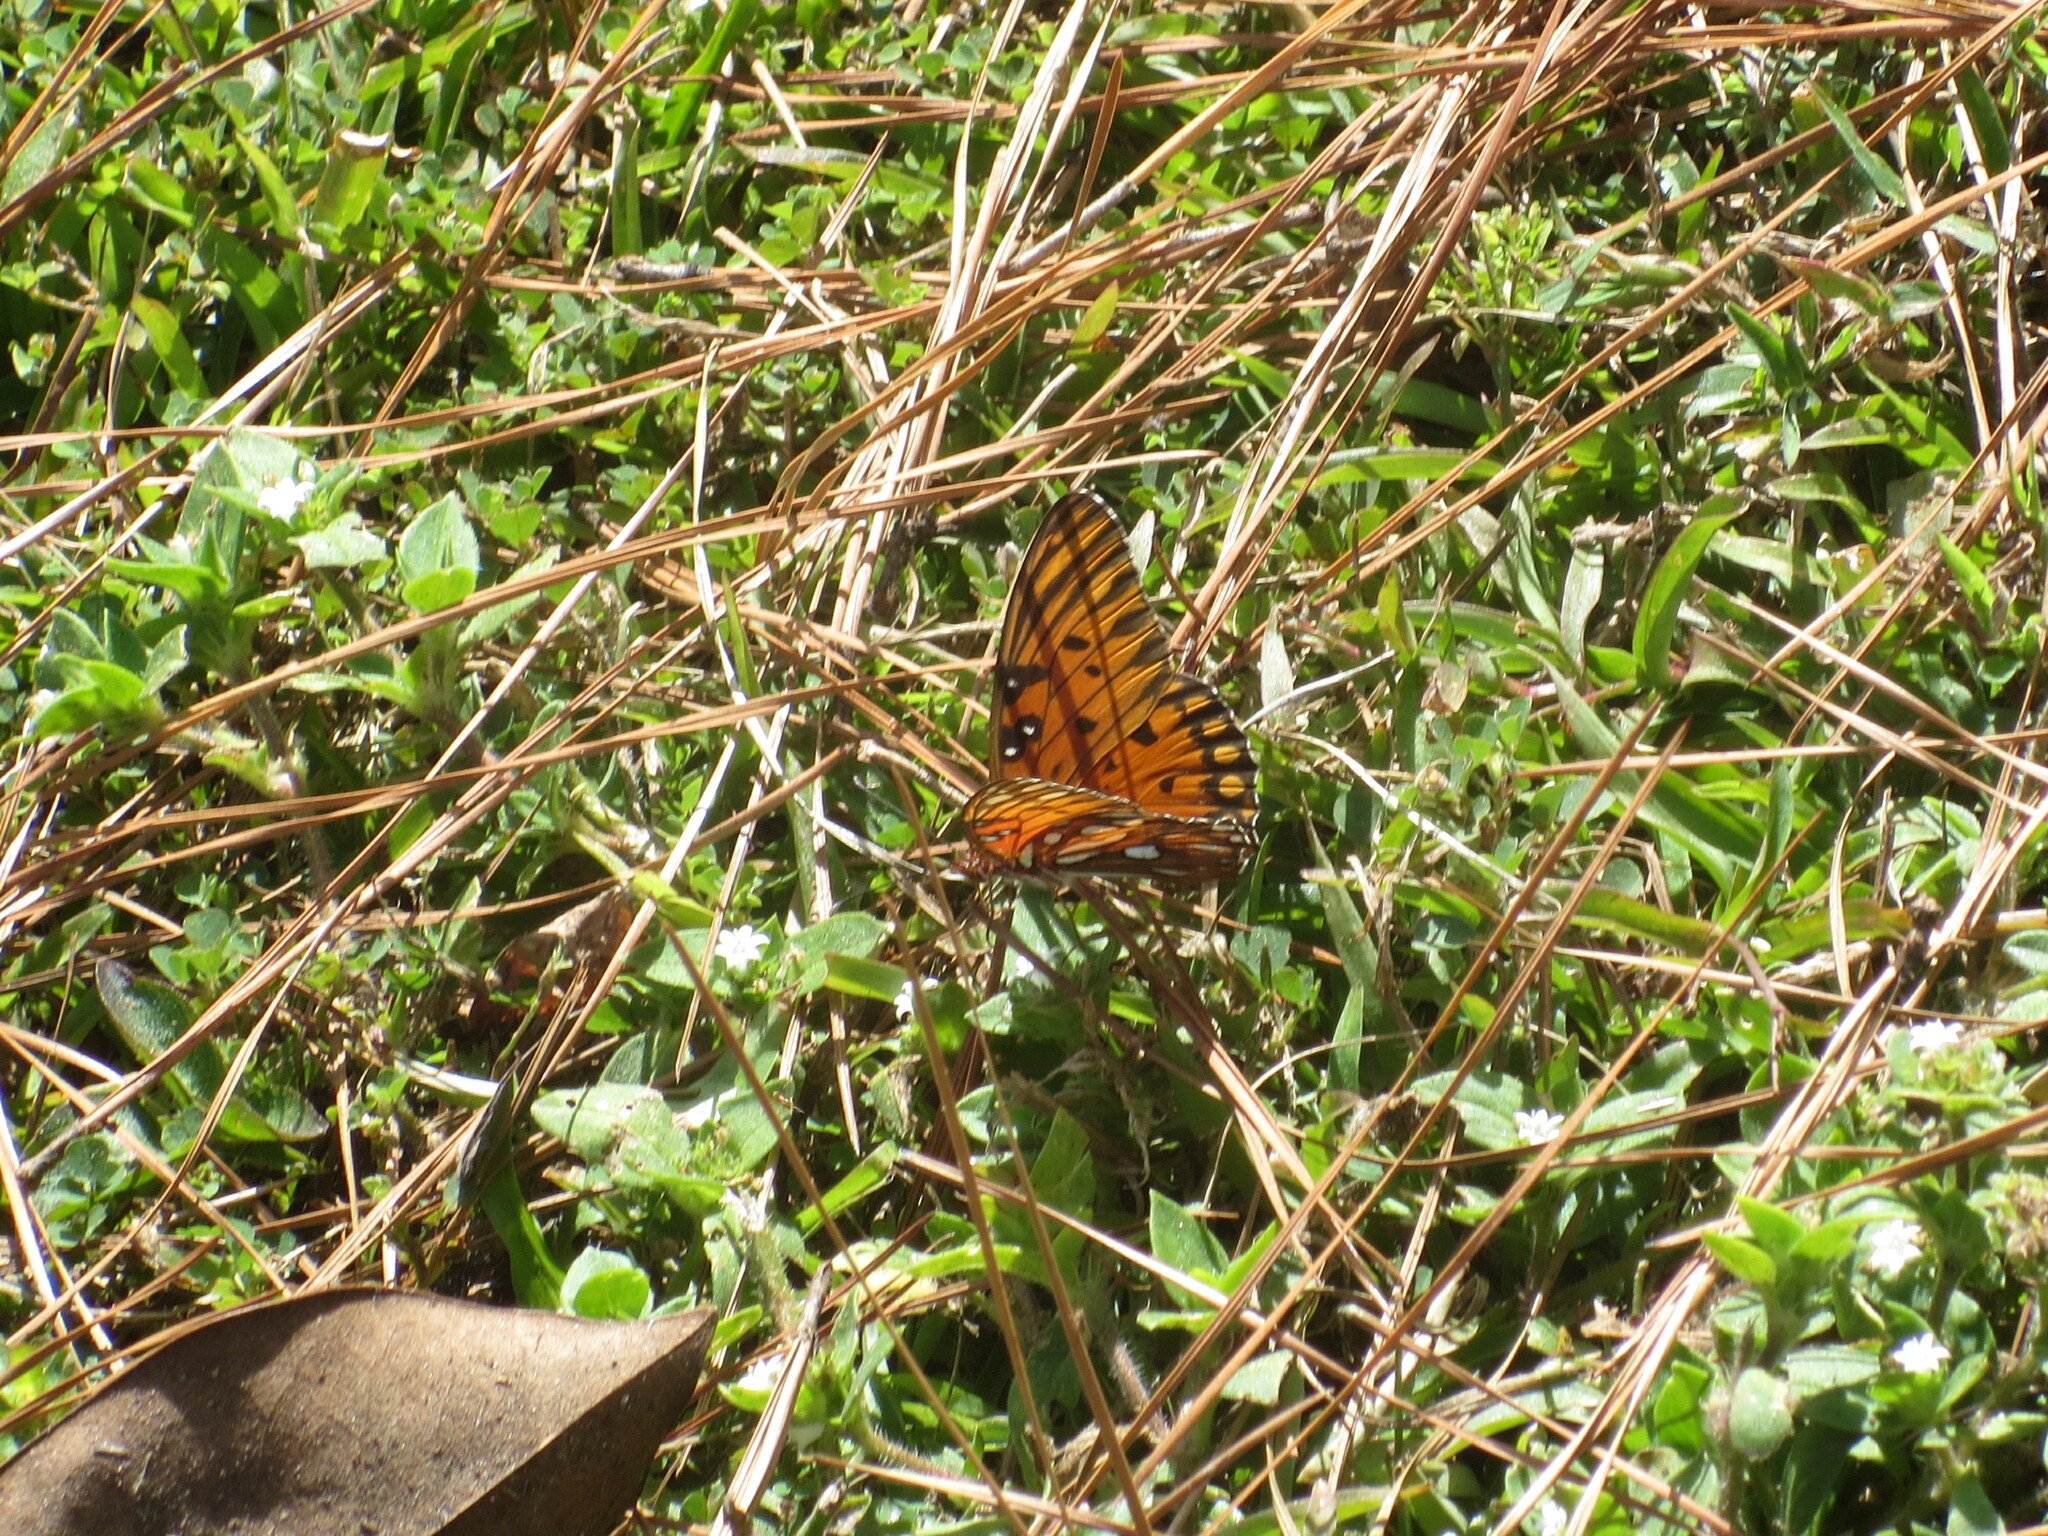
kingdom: Animalia
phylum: Arthropoda
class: Insecta
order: Lepidoptera
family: Nymphalidae
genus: Dione
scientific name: Dione vanillae
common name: Gulf fritillary
